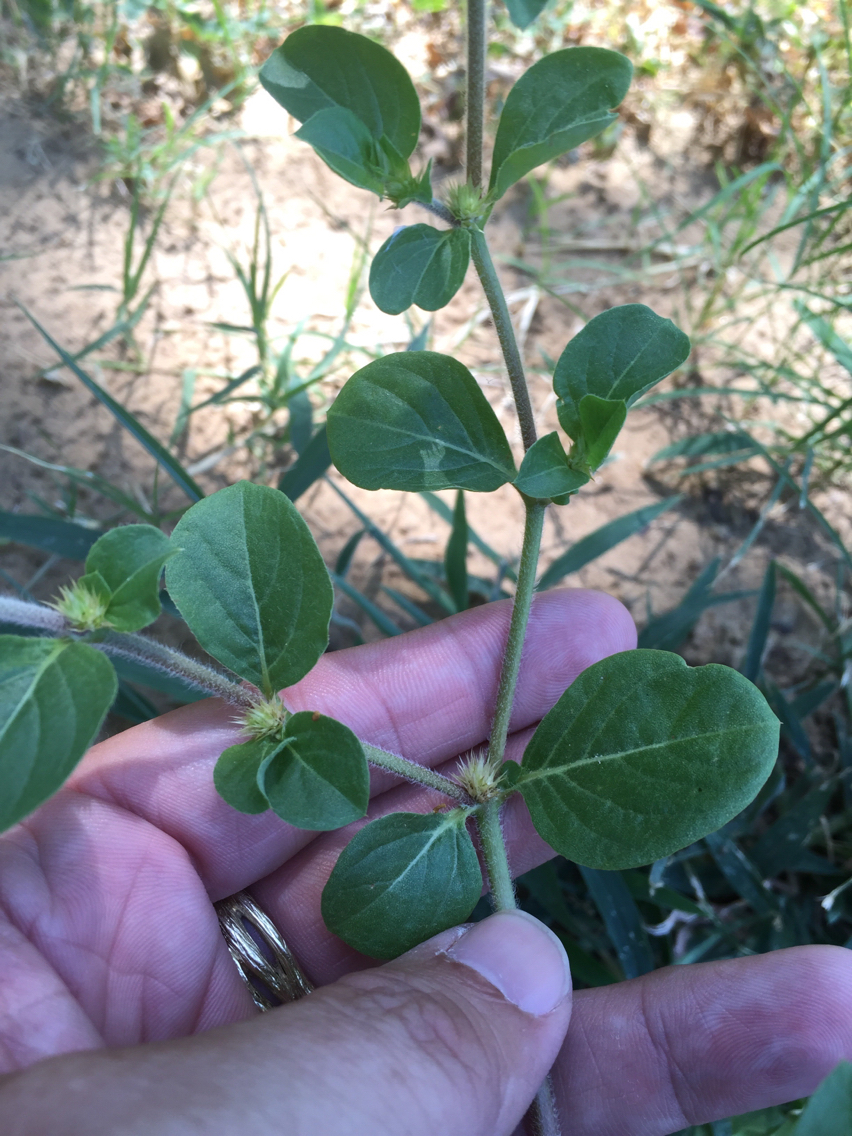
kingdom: Plantae
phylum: Tracheophyta
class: Magnoliopsida
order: Caryophyllales
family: Amaranthaceae
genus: Alternanthera
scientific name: Alternanthera pungens
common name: Khakiweed
